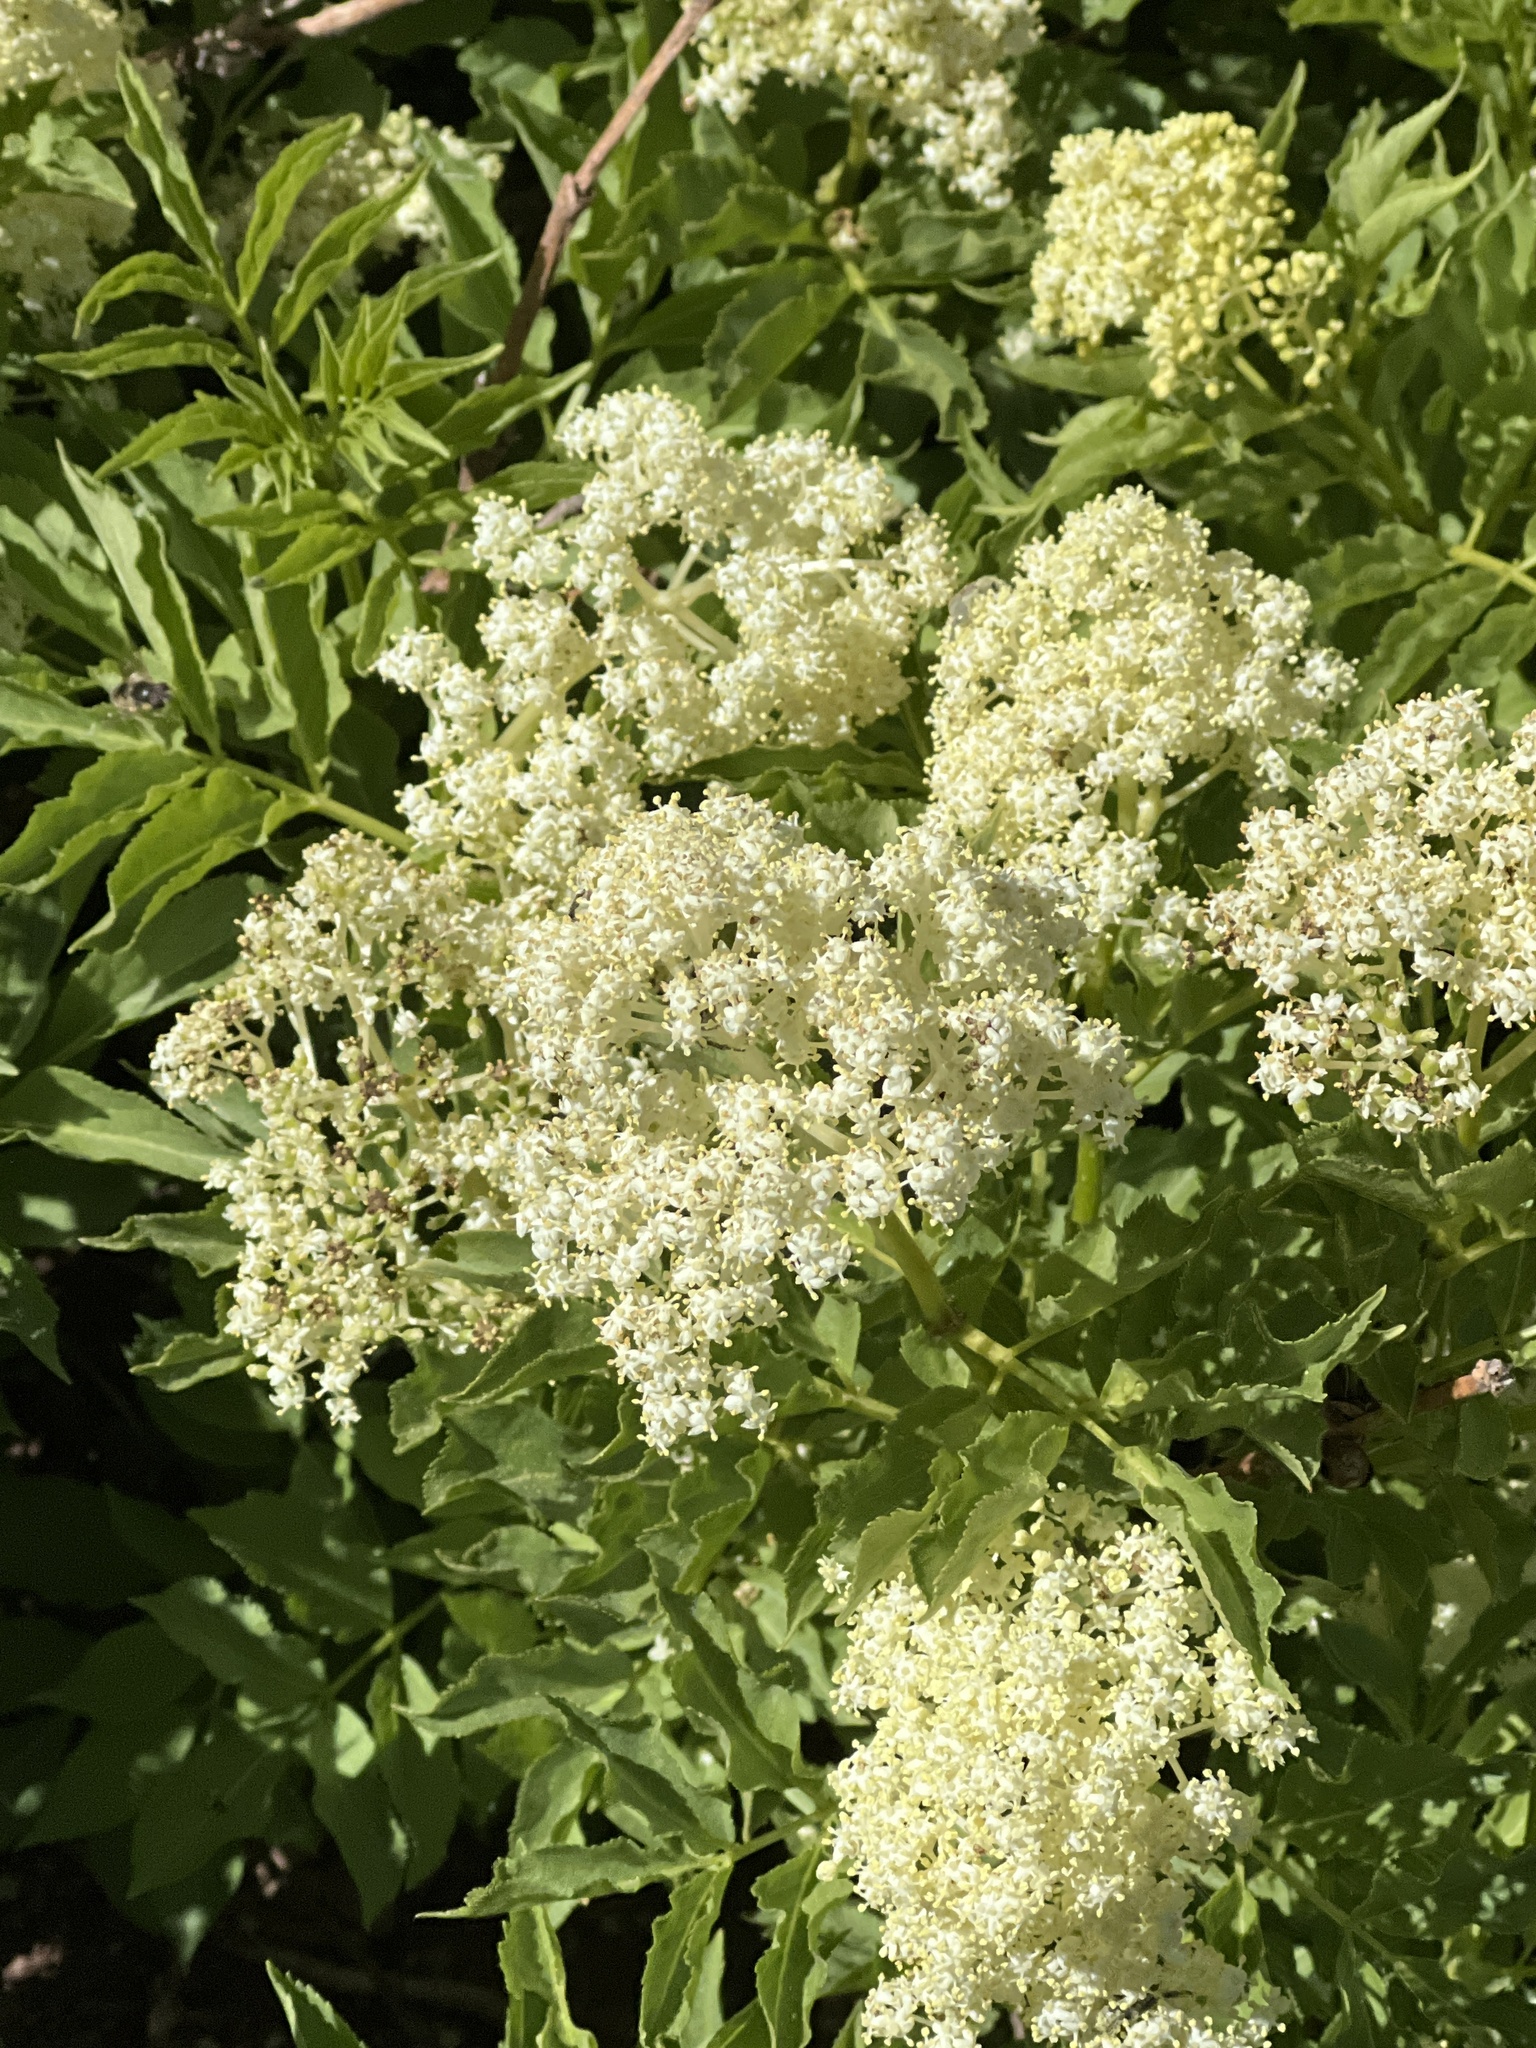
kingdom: Plantae
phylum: Tracheophyta
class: Magnoliopsida
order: Dipsacales
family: Viburnaceae
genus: Sambucus
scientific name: Sambucus racemosa
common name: Red-berried elder
